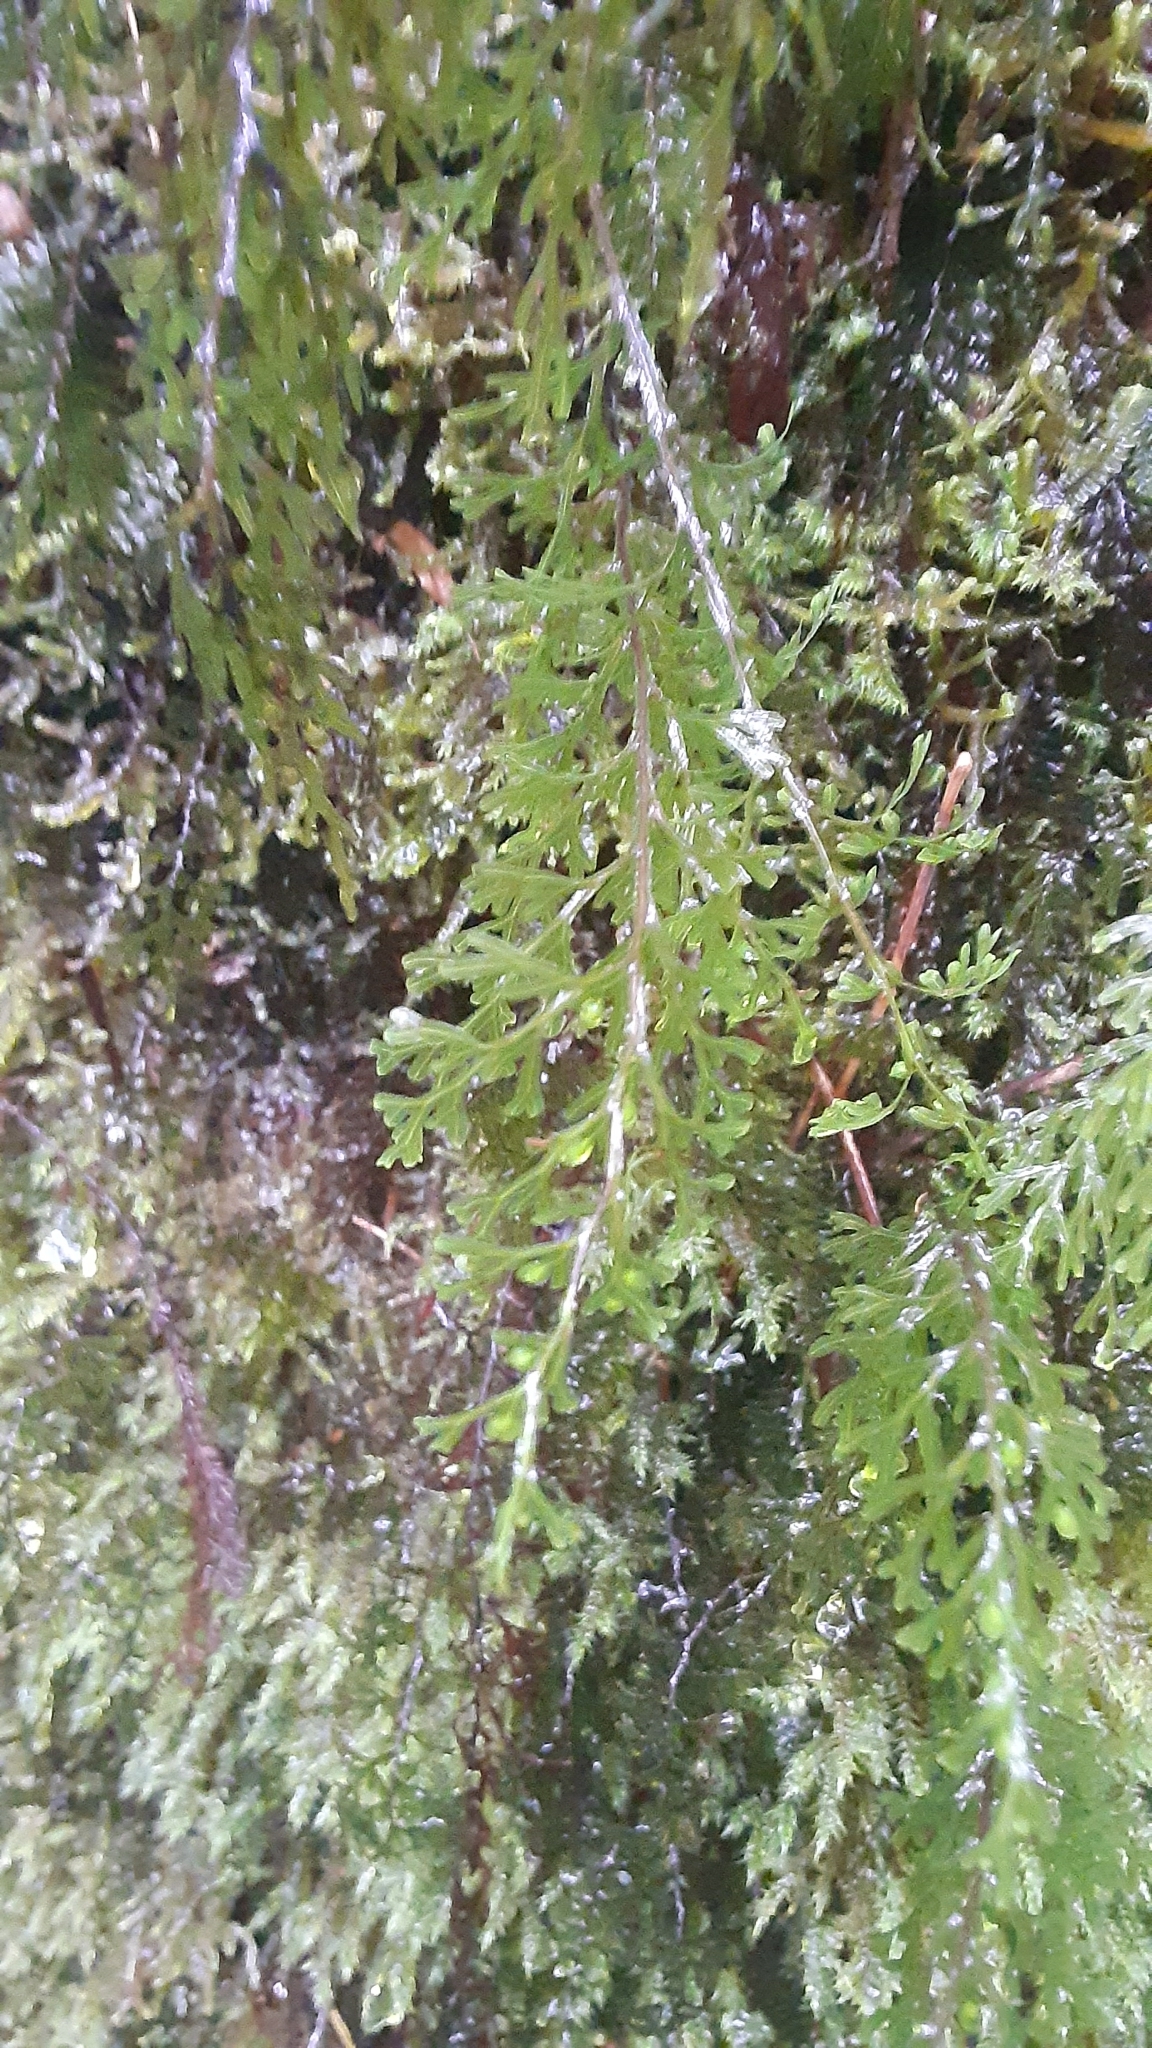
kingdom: Plantae
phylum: Tracheophyta
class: Polypodiopsida
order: Hymenophyllales
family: Hymenophyllaceae
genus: Hymenophyllum
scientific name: Hymenophyllum recurvum
